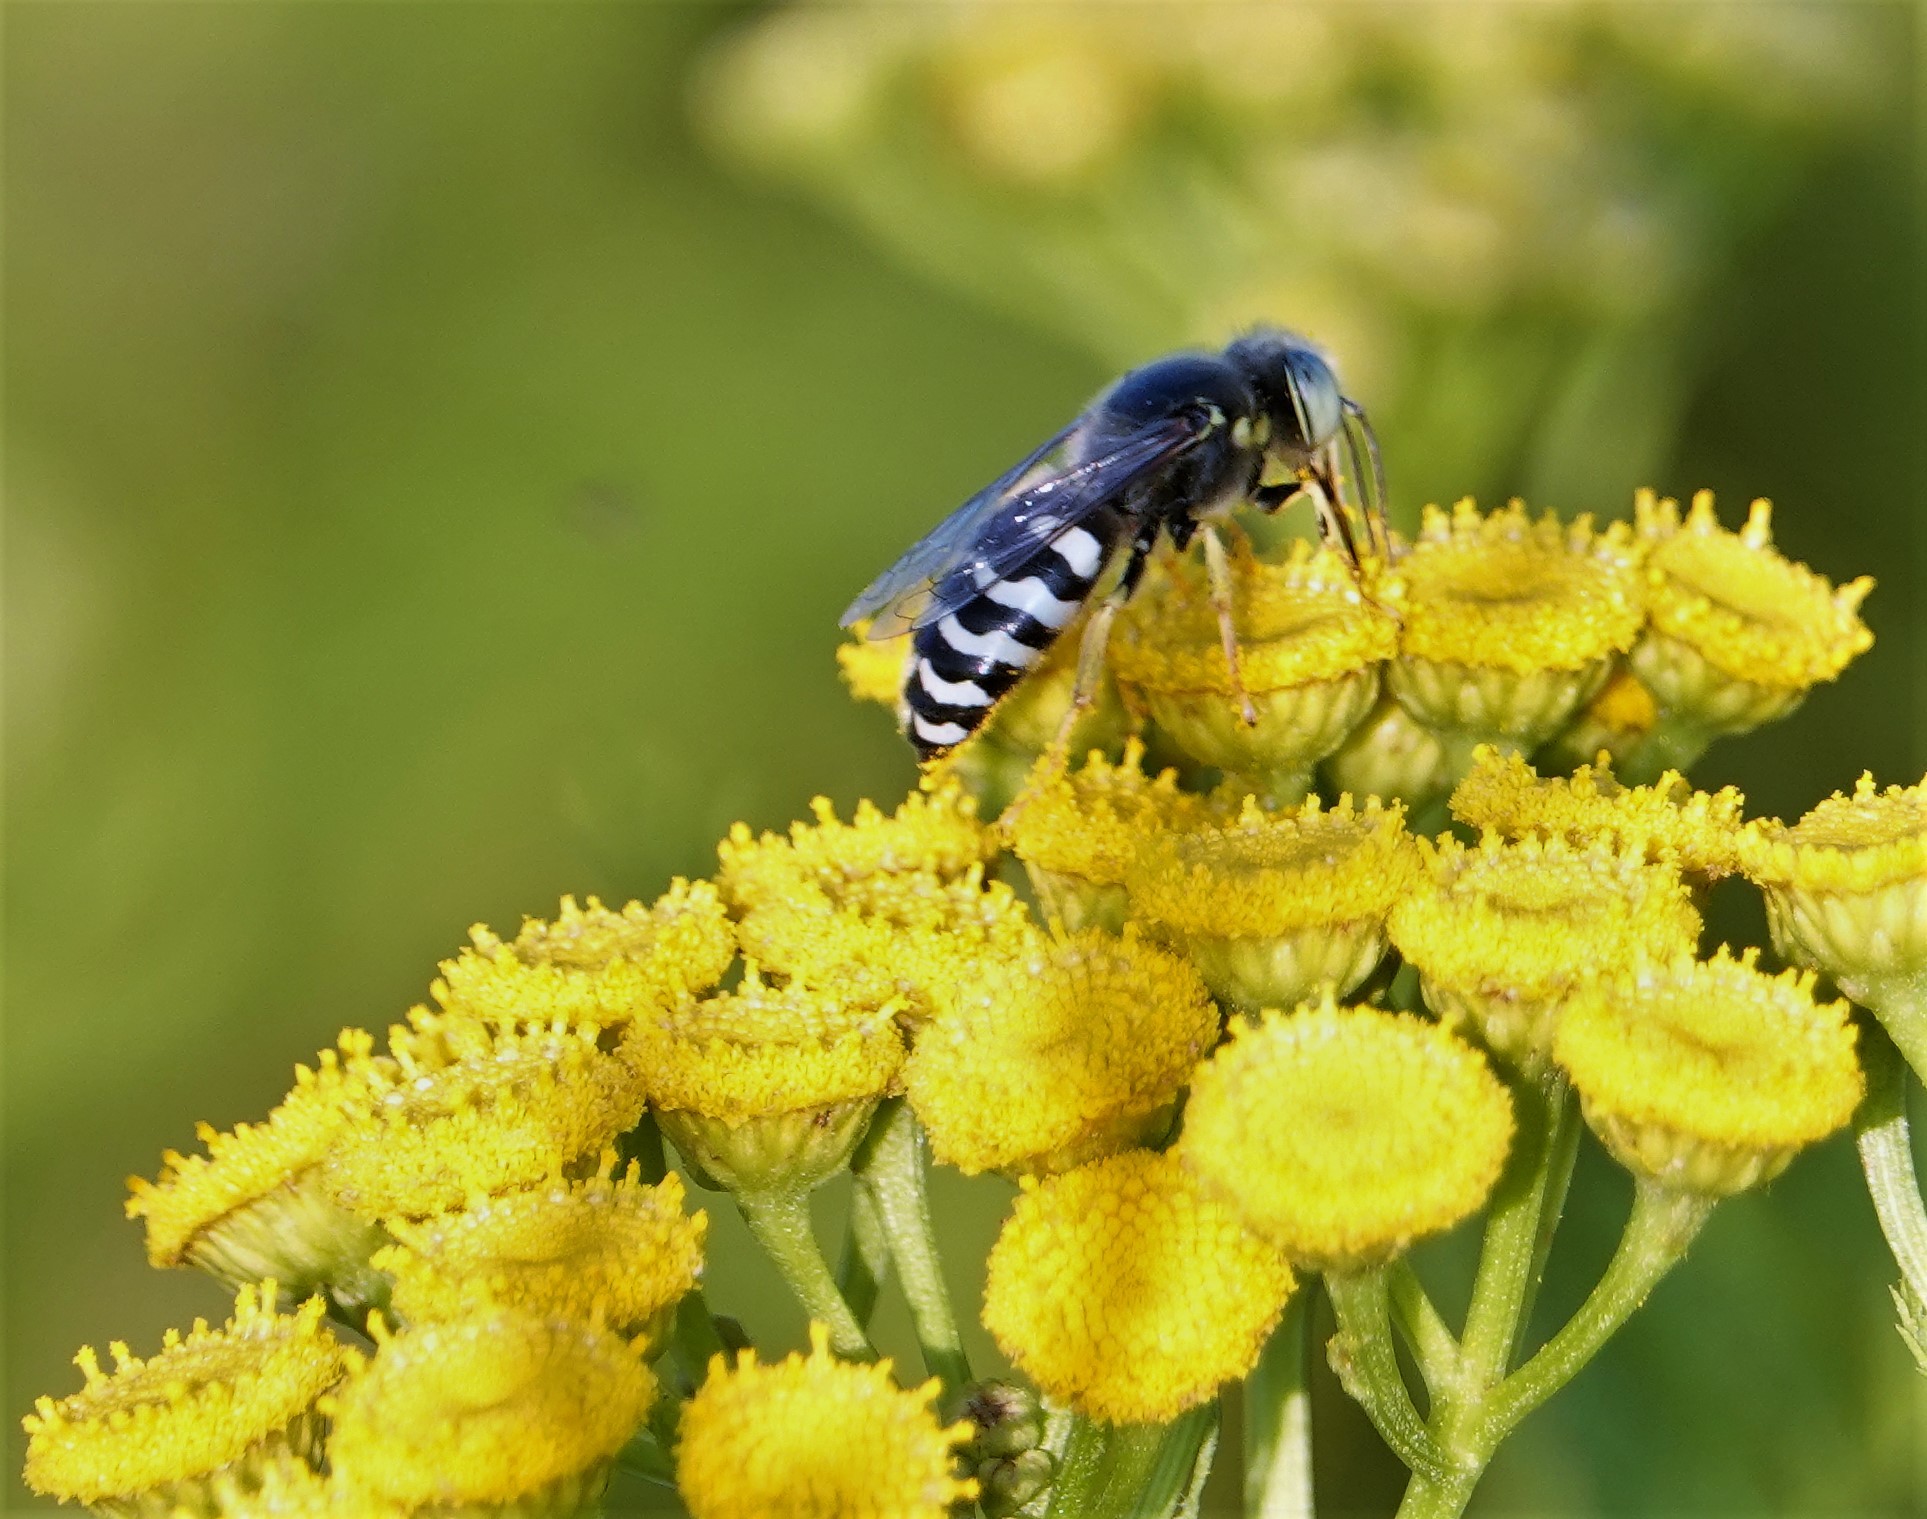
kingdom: Animalia
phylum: Arthropoda
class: Insecta
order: Hymenoptera
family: Crabronidae
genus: Bembix
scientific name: Bembix americana
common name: American sand wasp
